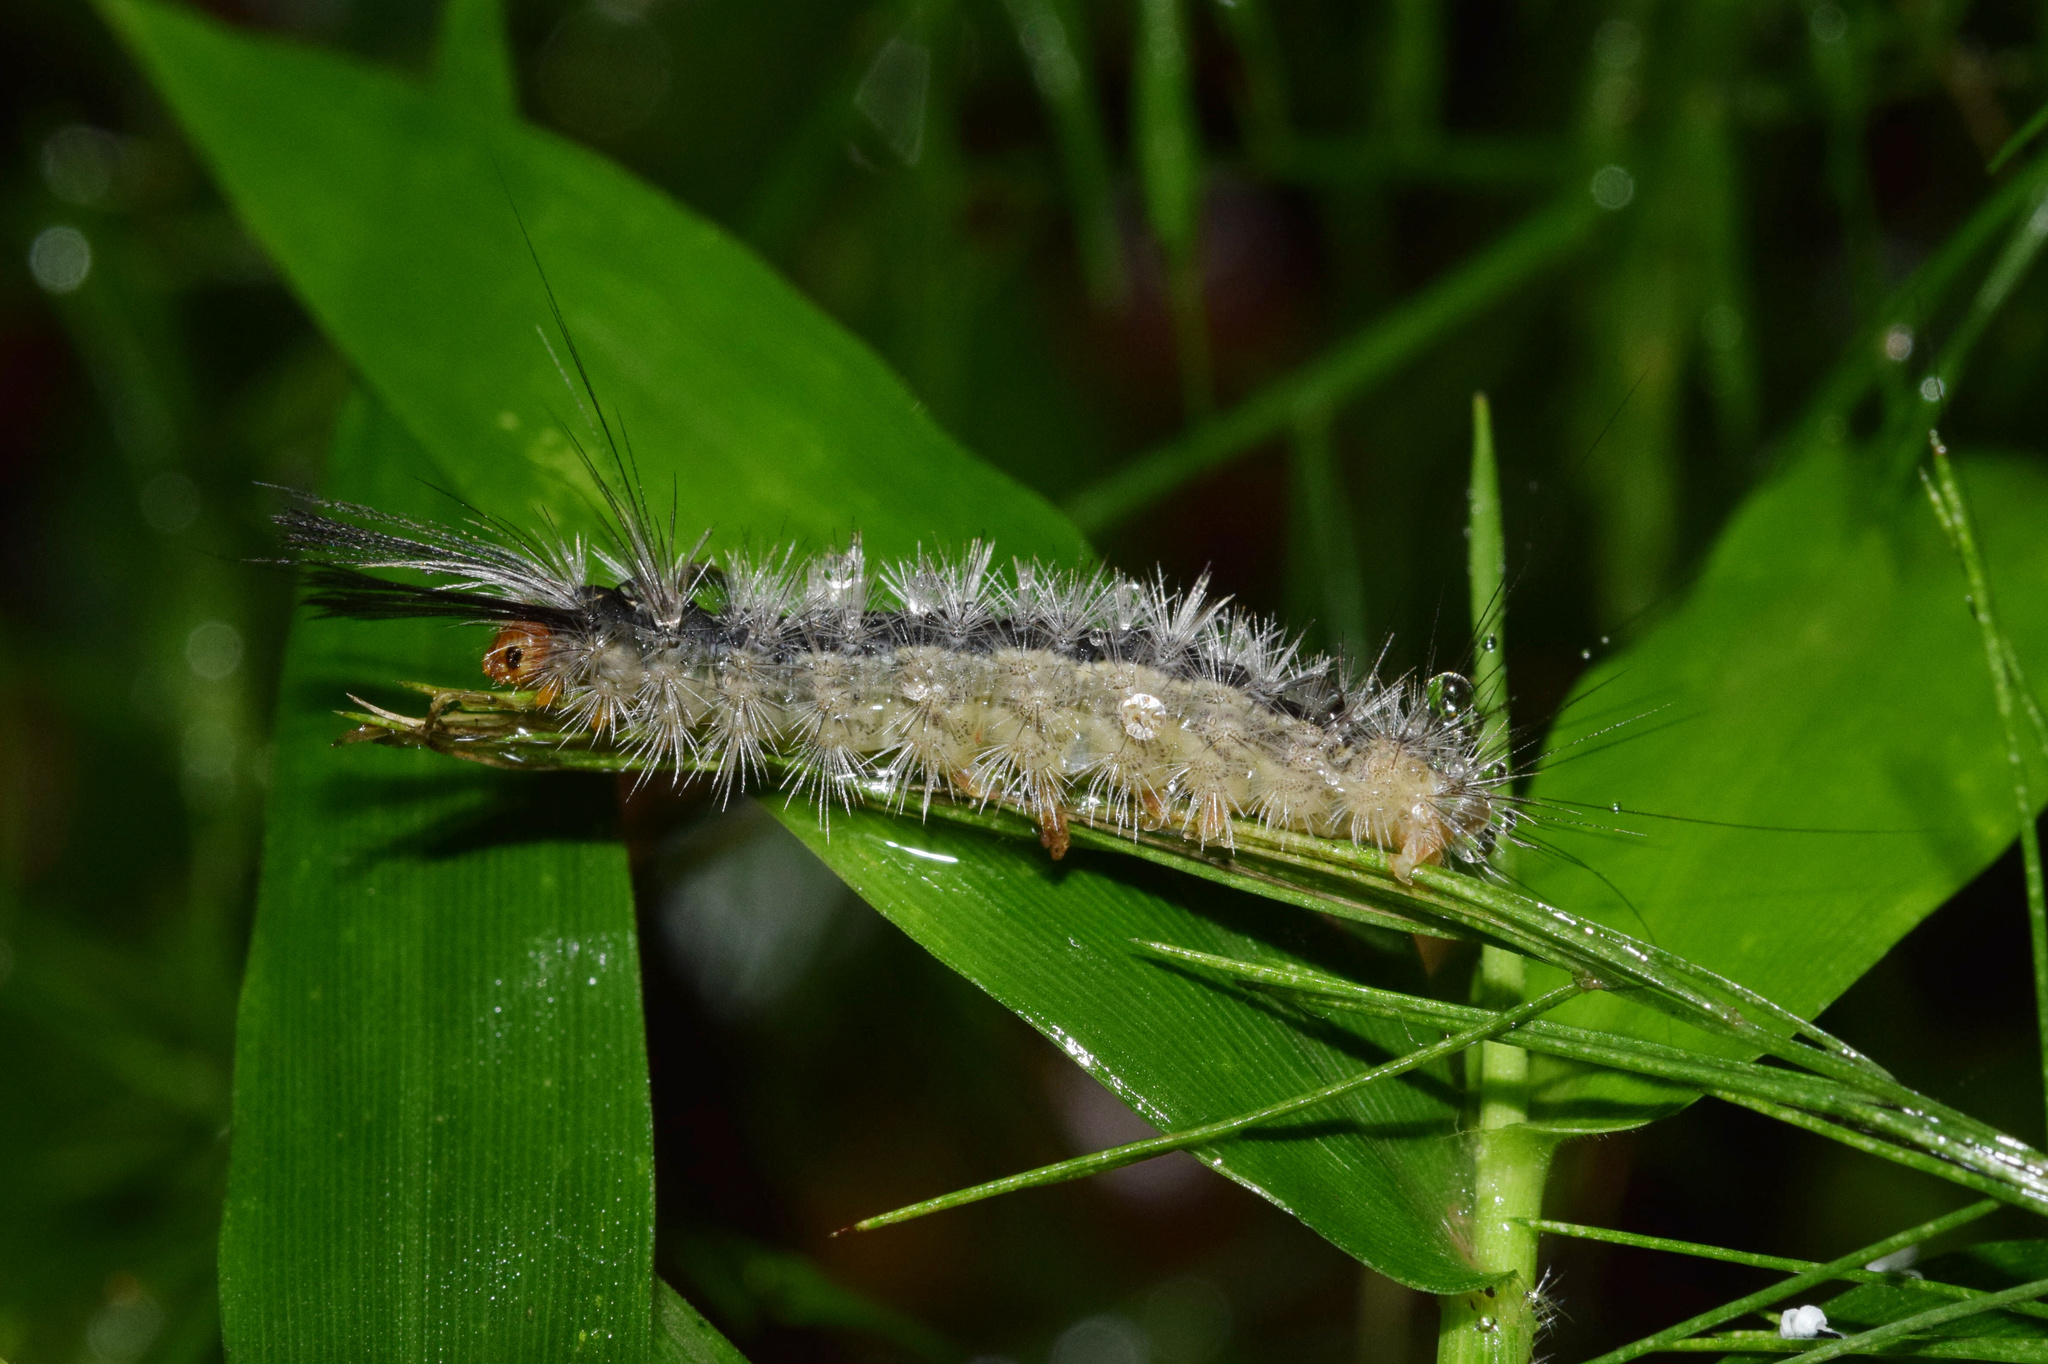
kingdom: Animalia
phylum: Arthropoda
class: Insecta
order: Lepidoptera
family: Erebidae
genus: Galtara
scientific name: Galtara rostrata
